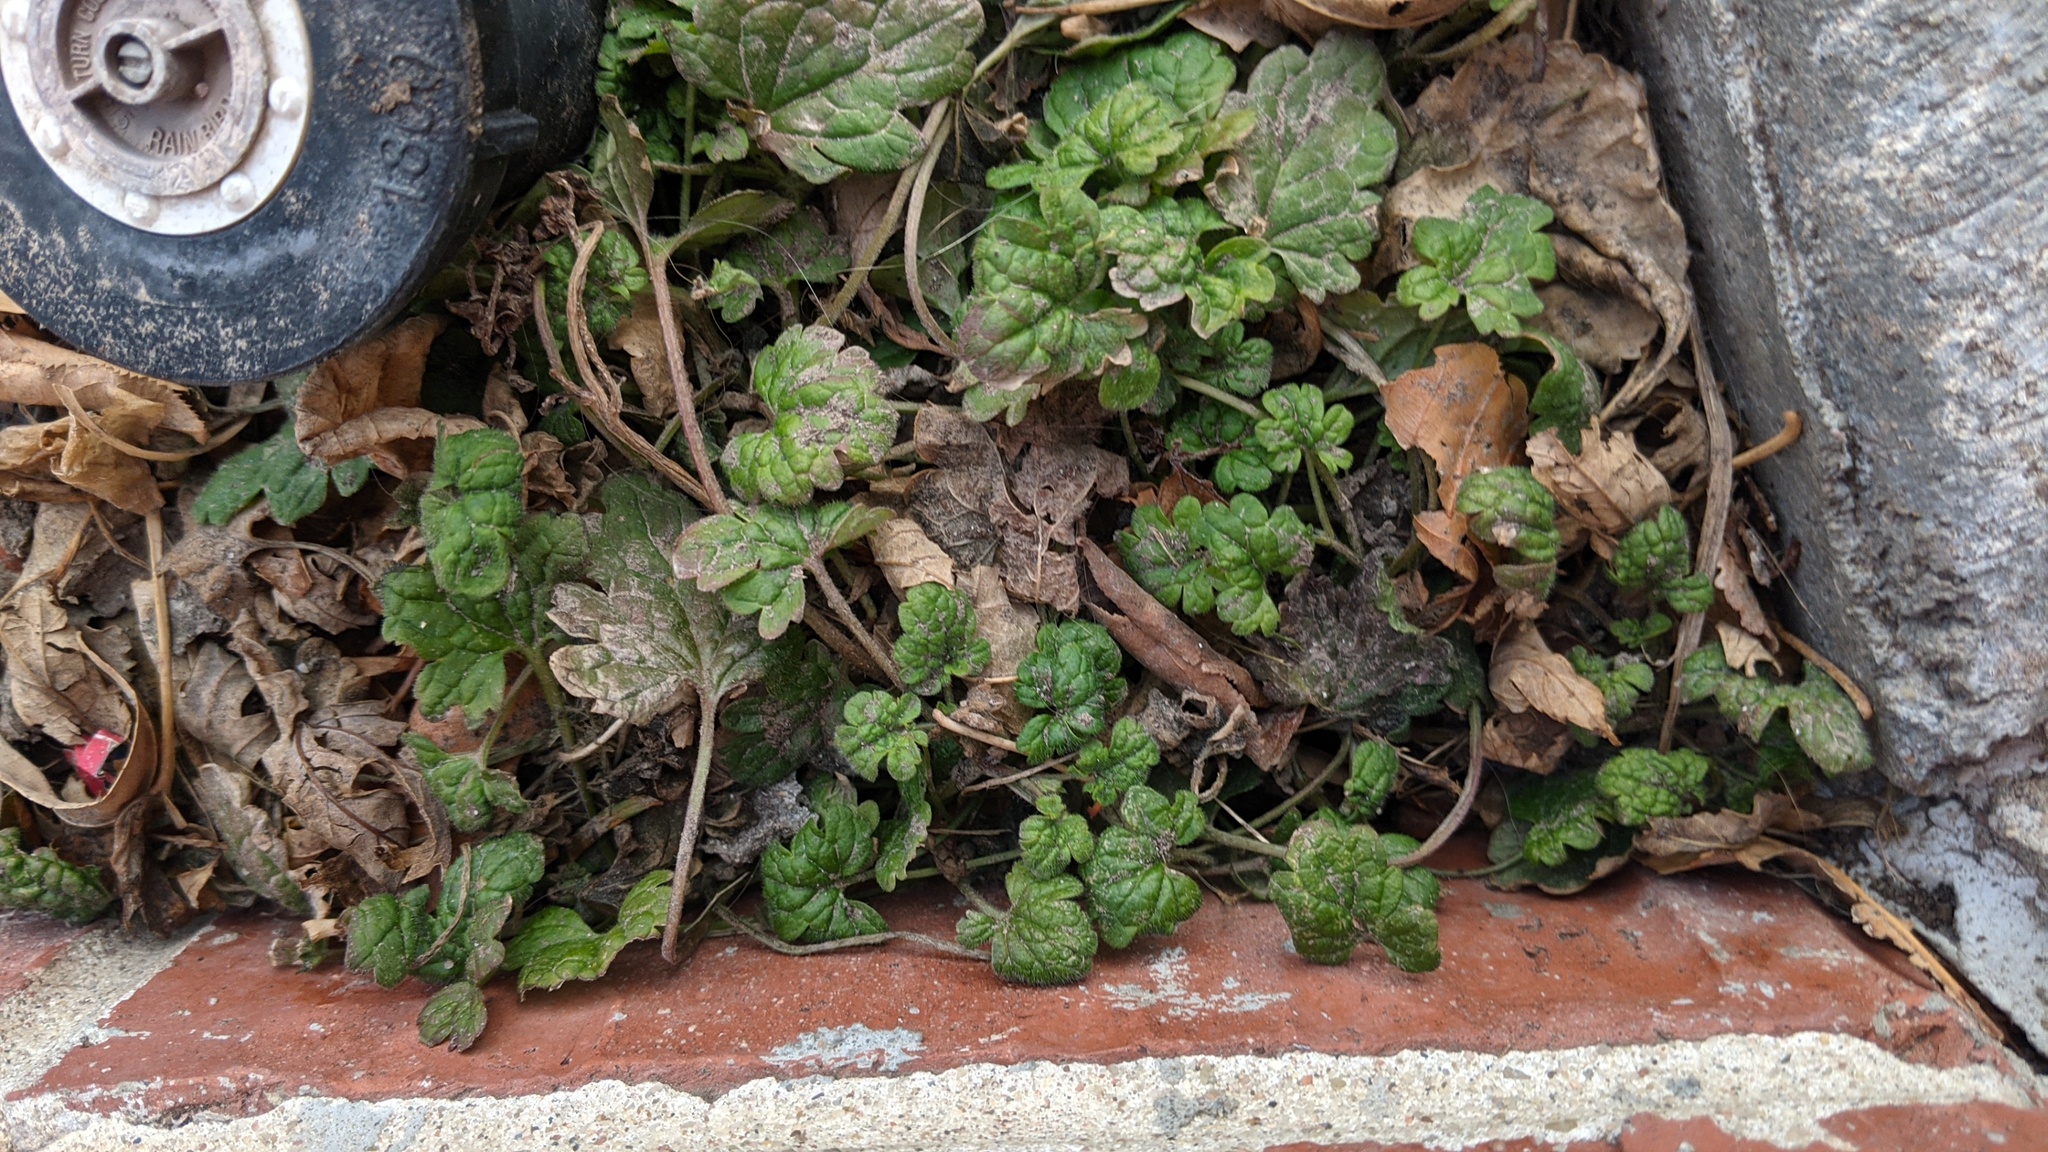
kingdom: Plantae
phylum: Tracheophyta
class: Magnoliopsida
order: Lamiales
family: Lamiaceae
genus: Lamium
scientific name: Lamium amplexicaule
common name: Henbit dead-nettle
